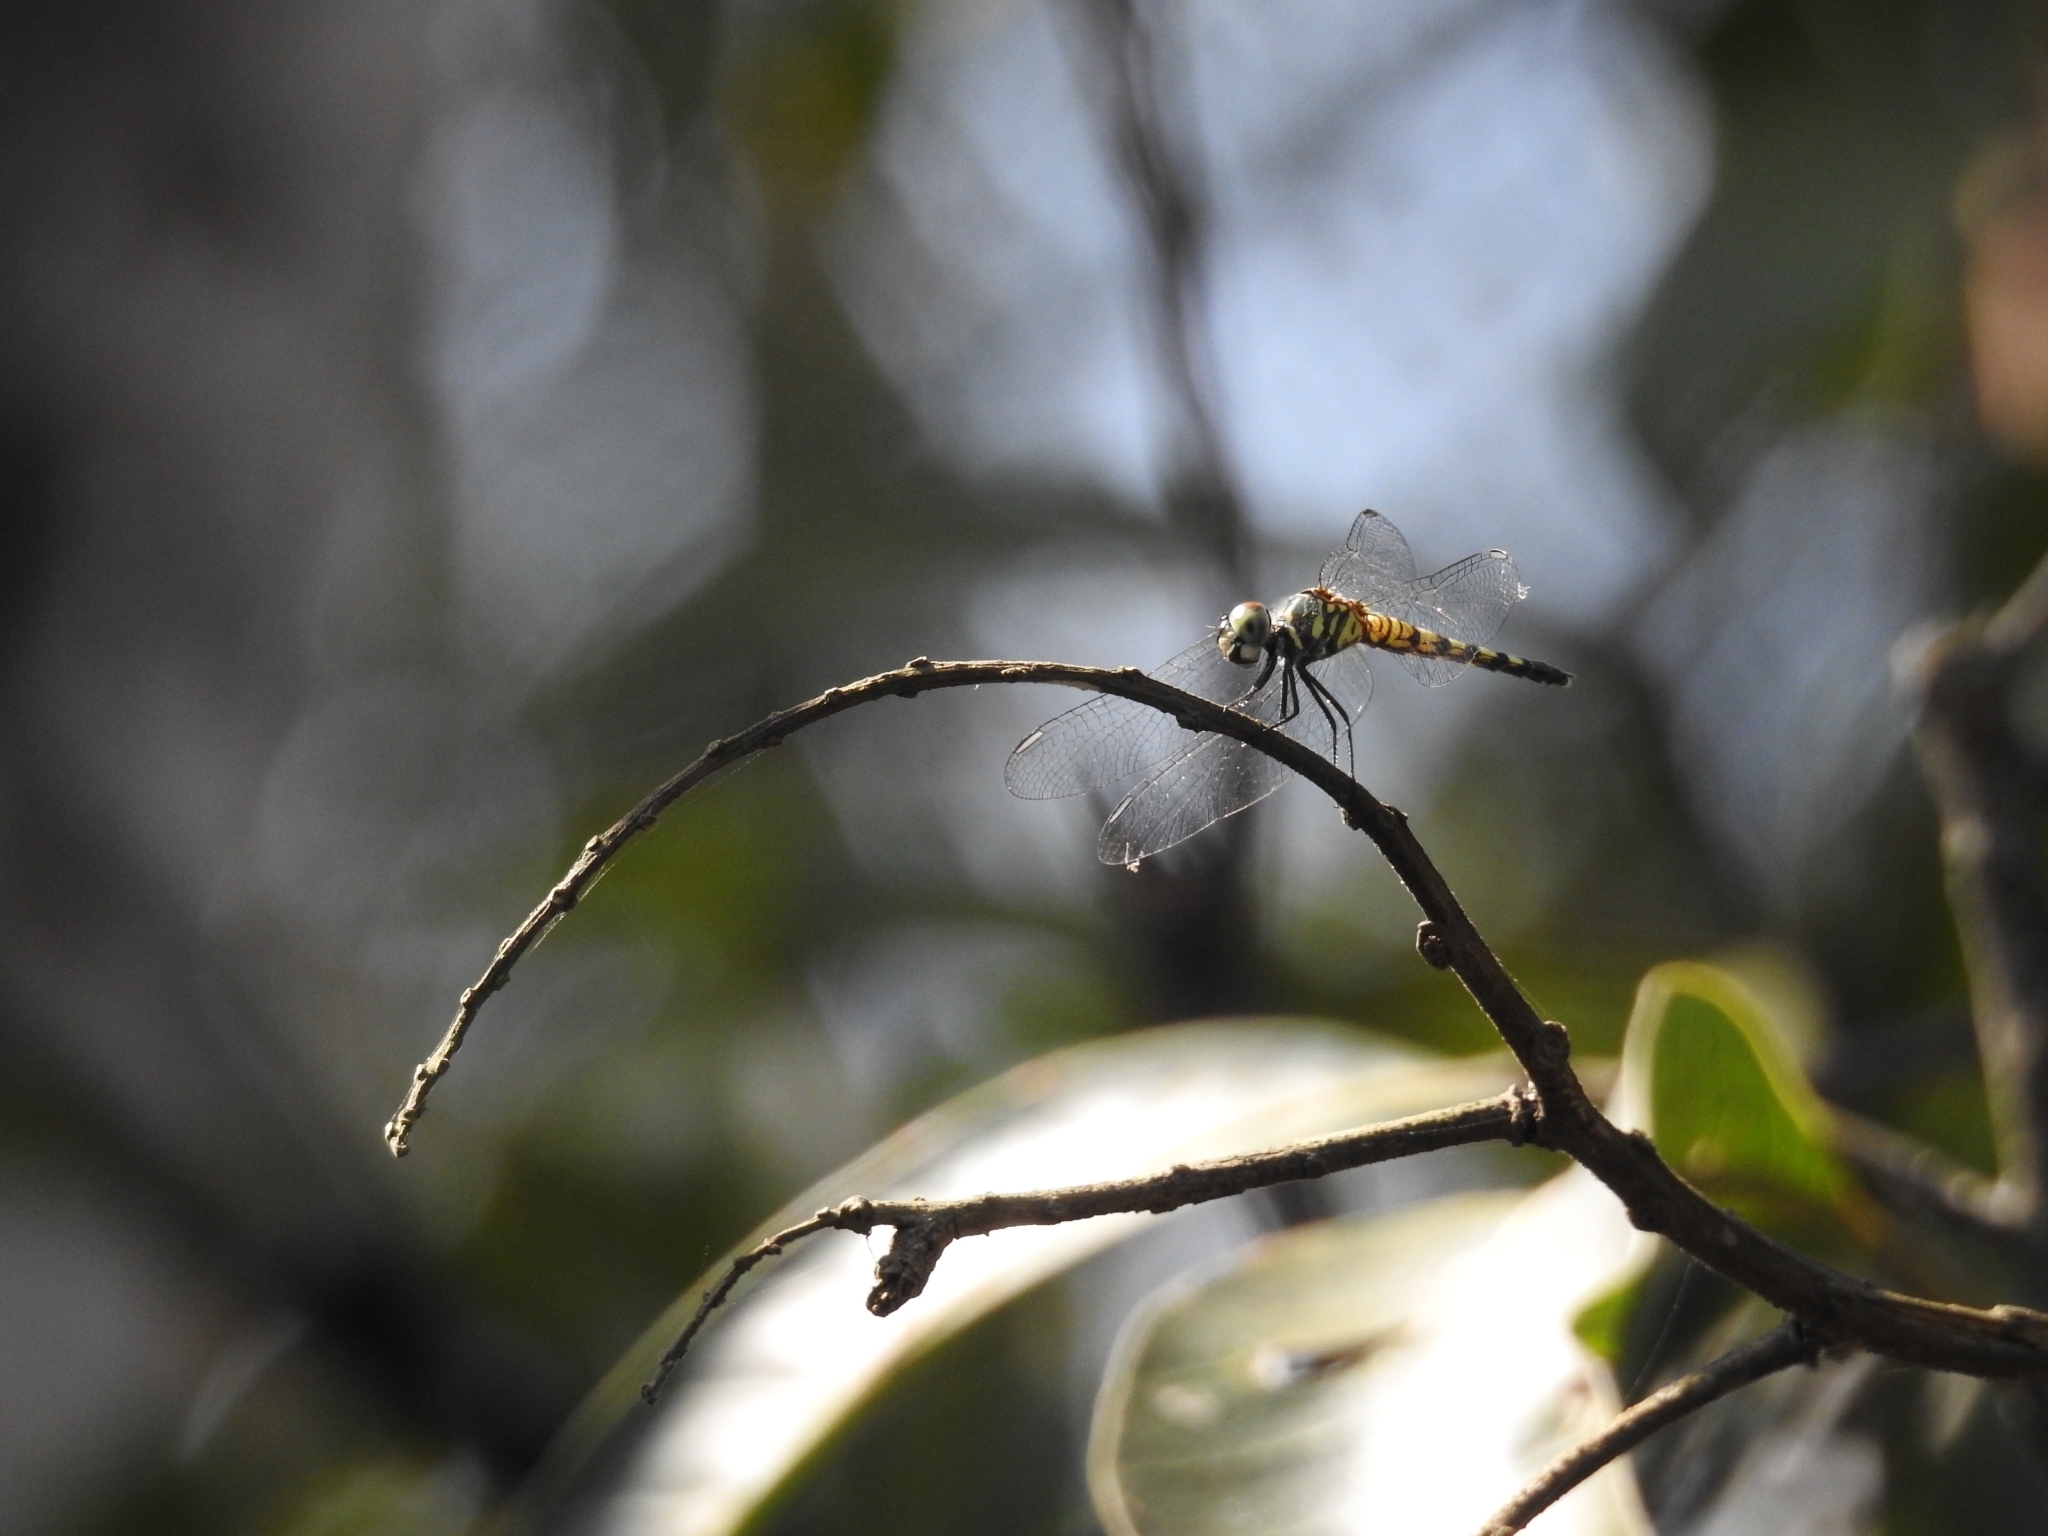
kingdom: Animalia
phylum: Arthropoda
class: Insecta
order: Odonata
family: Libellulidae
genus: Brachydiplax
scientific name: Brachydiplax sobrina
